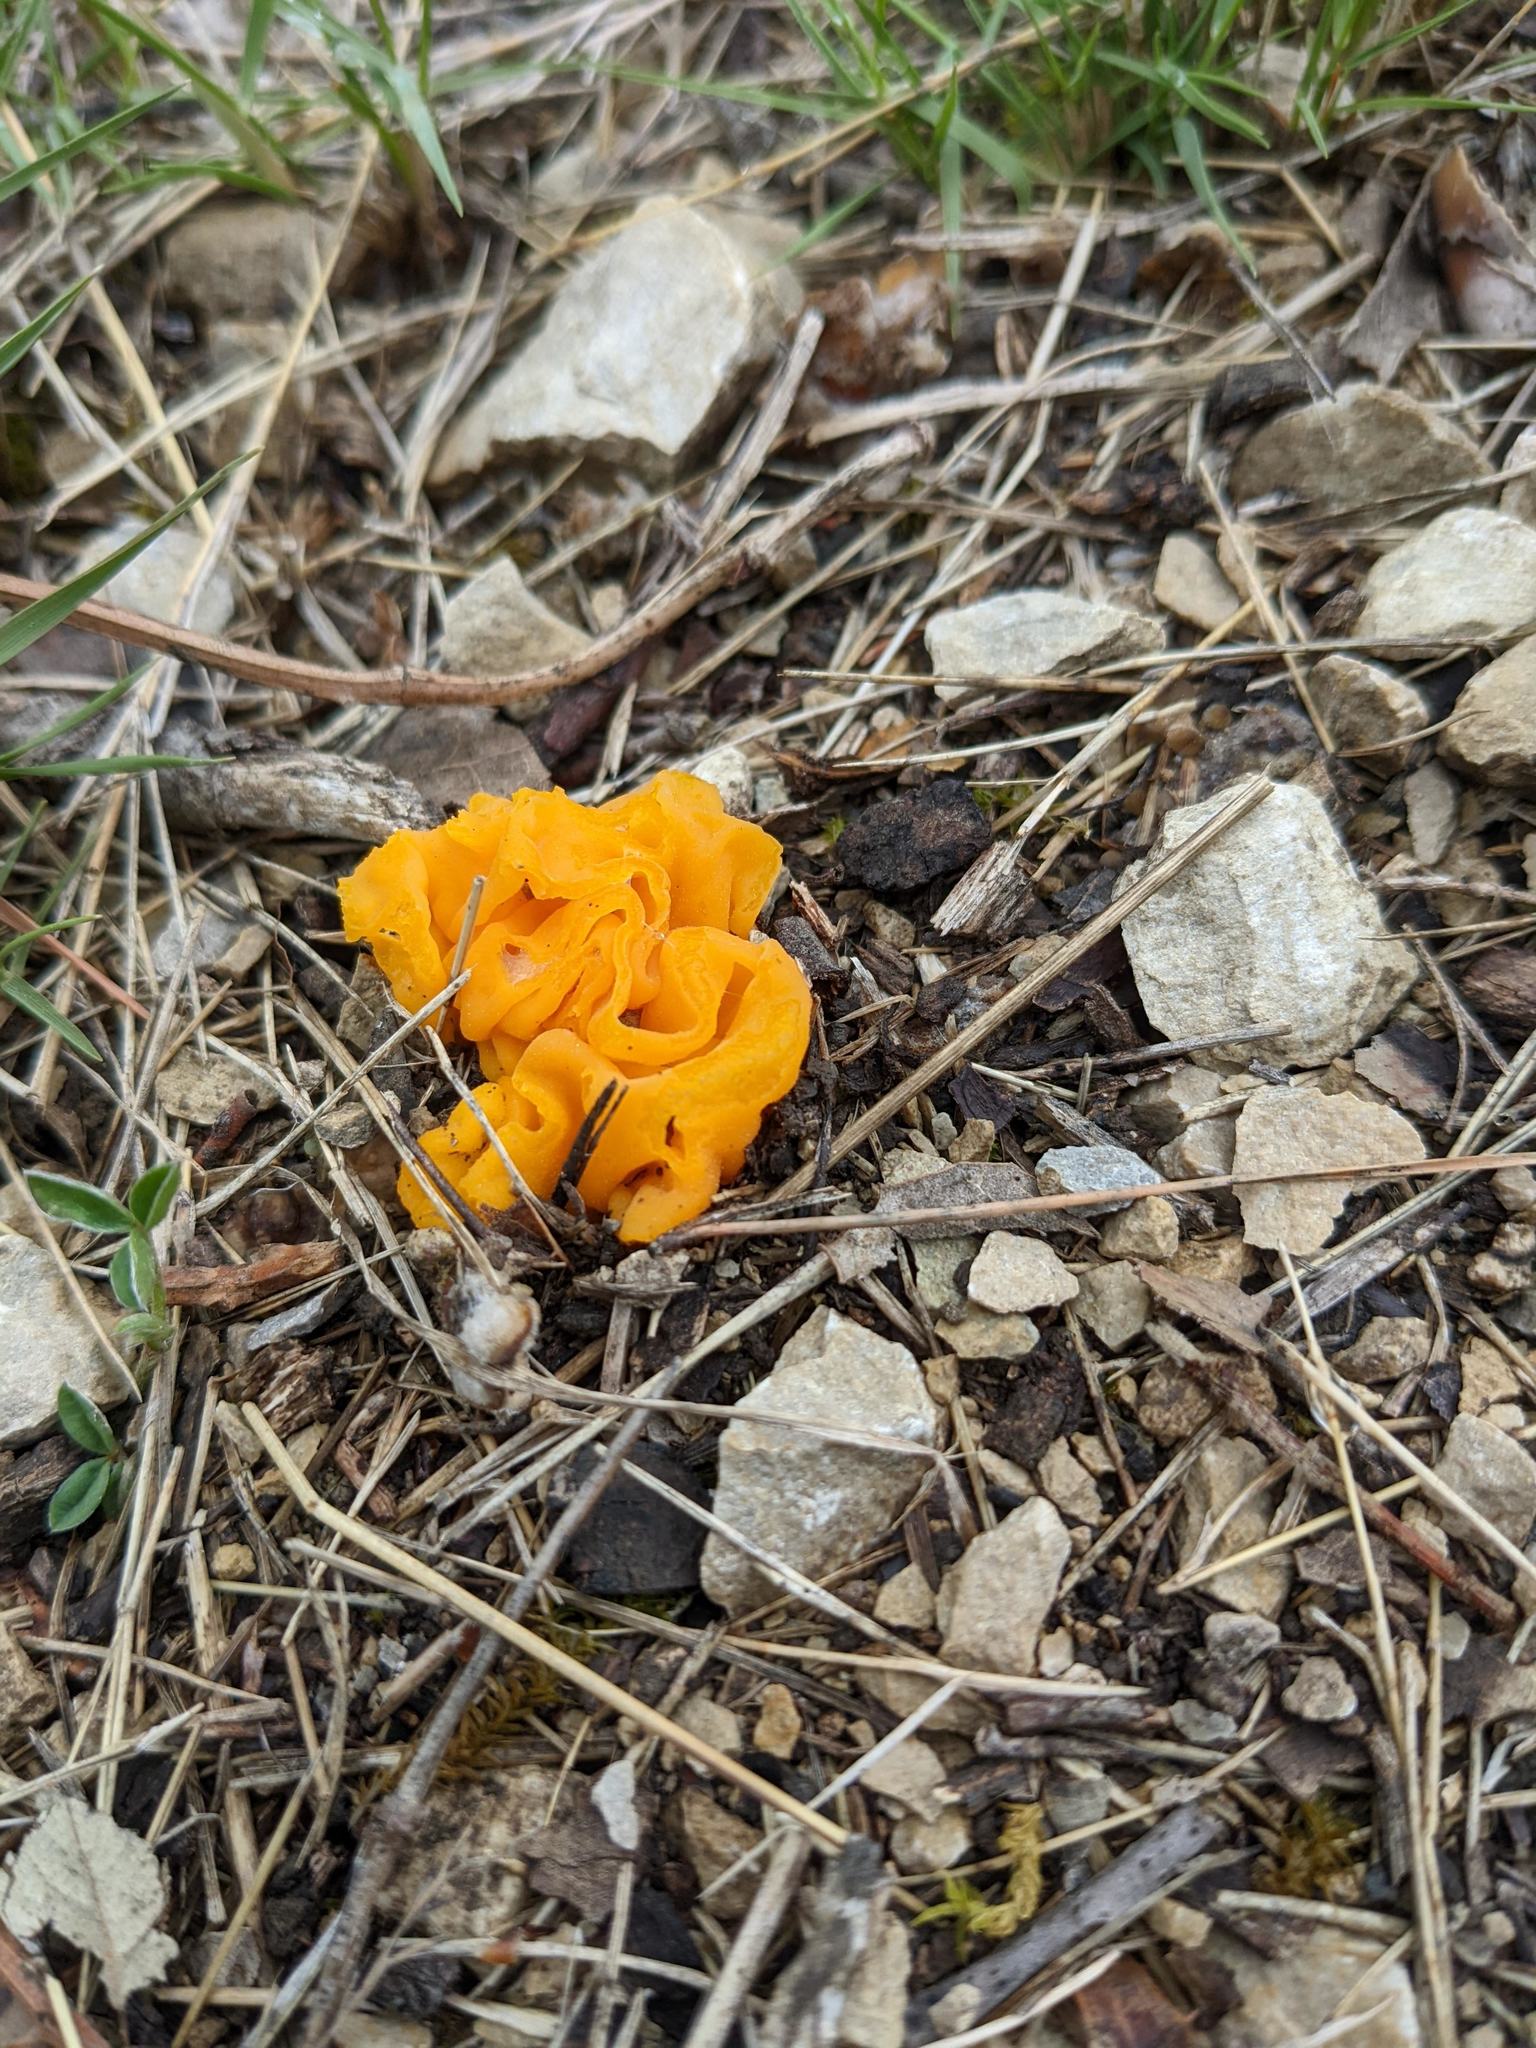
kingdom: Fungi
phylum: Basidiomycota
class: Tremellomycetes
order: Tremellales
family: Naemateliaceae
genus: Naematelia
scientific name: Naematelia aurantia
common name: Golden ear
